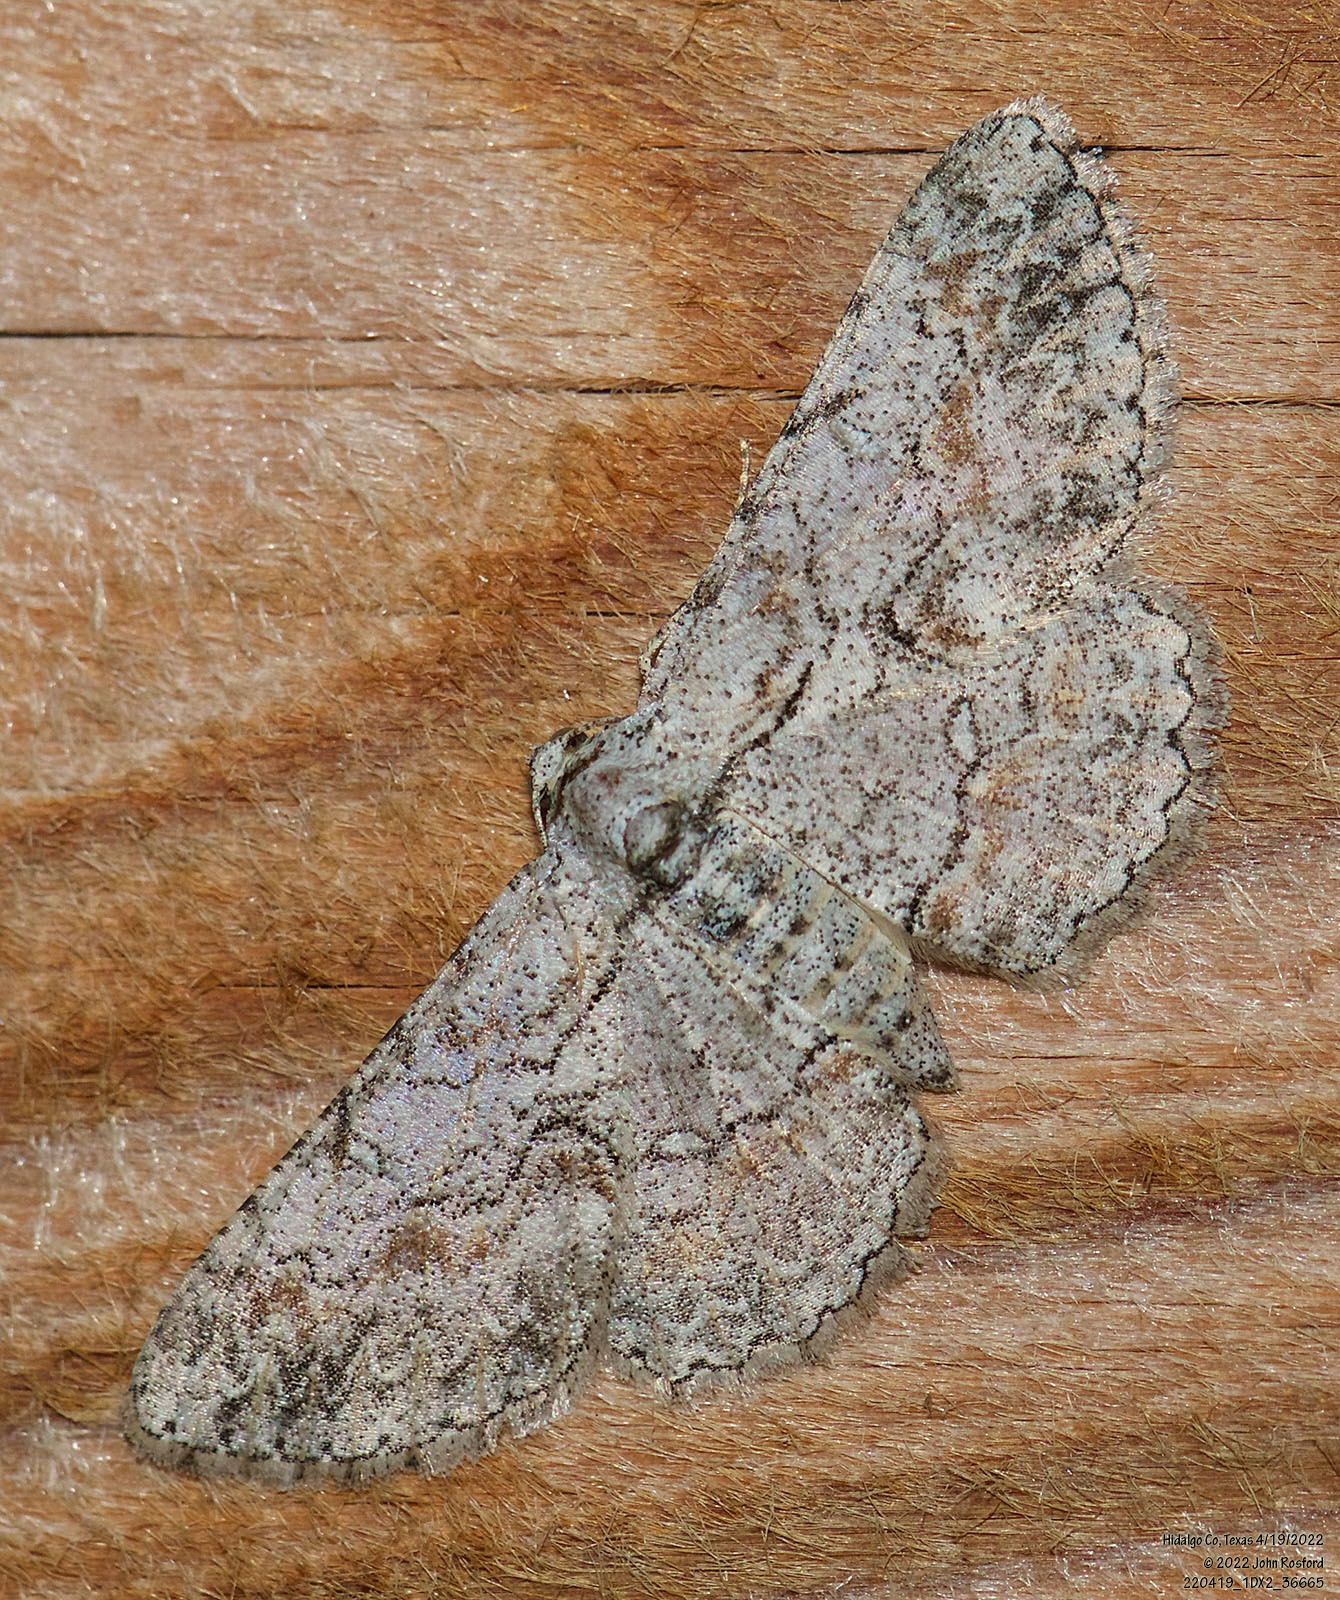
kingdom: Animalia
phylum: Arthropoda
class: Insecta
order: Lepidoptera
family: Geometridae
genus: Iridopsis
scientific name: Iridopsis defectaria
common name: Brown-shaded gray
